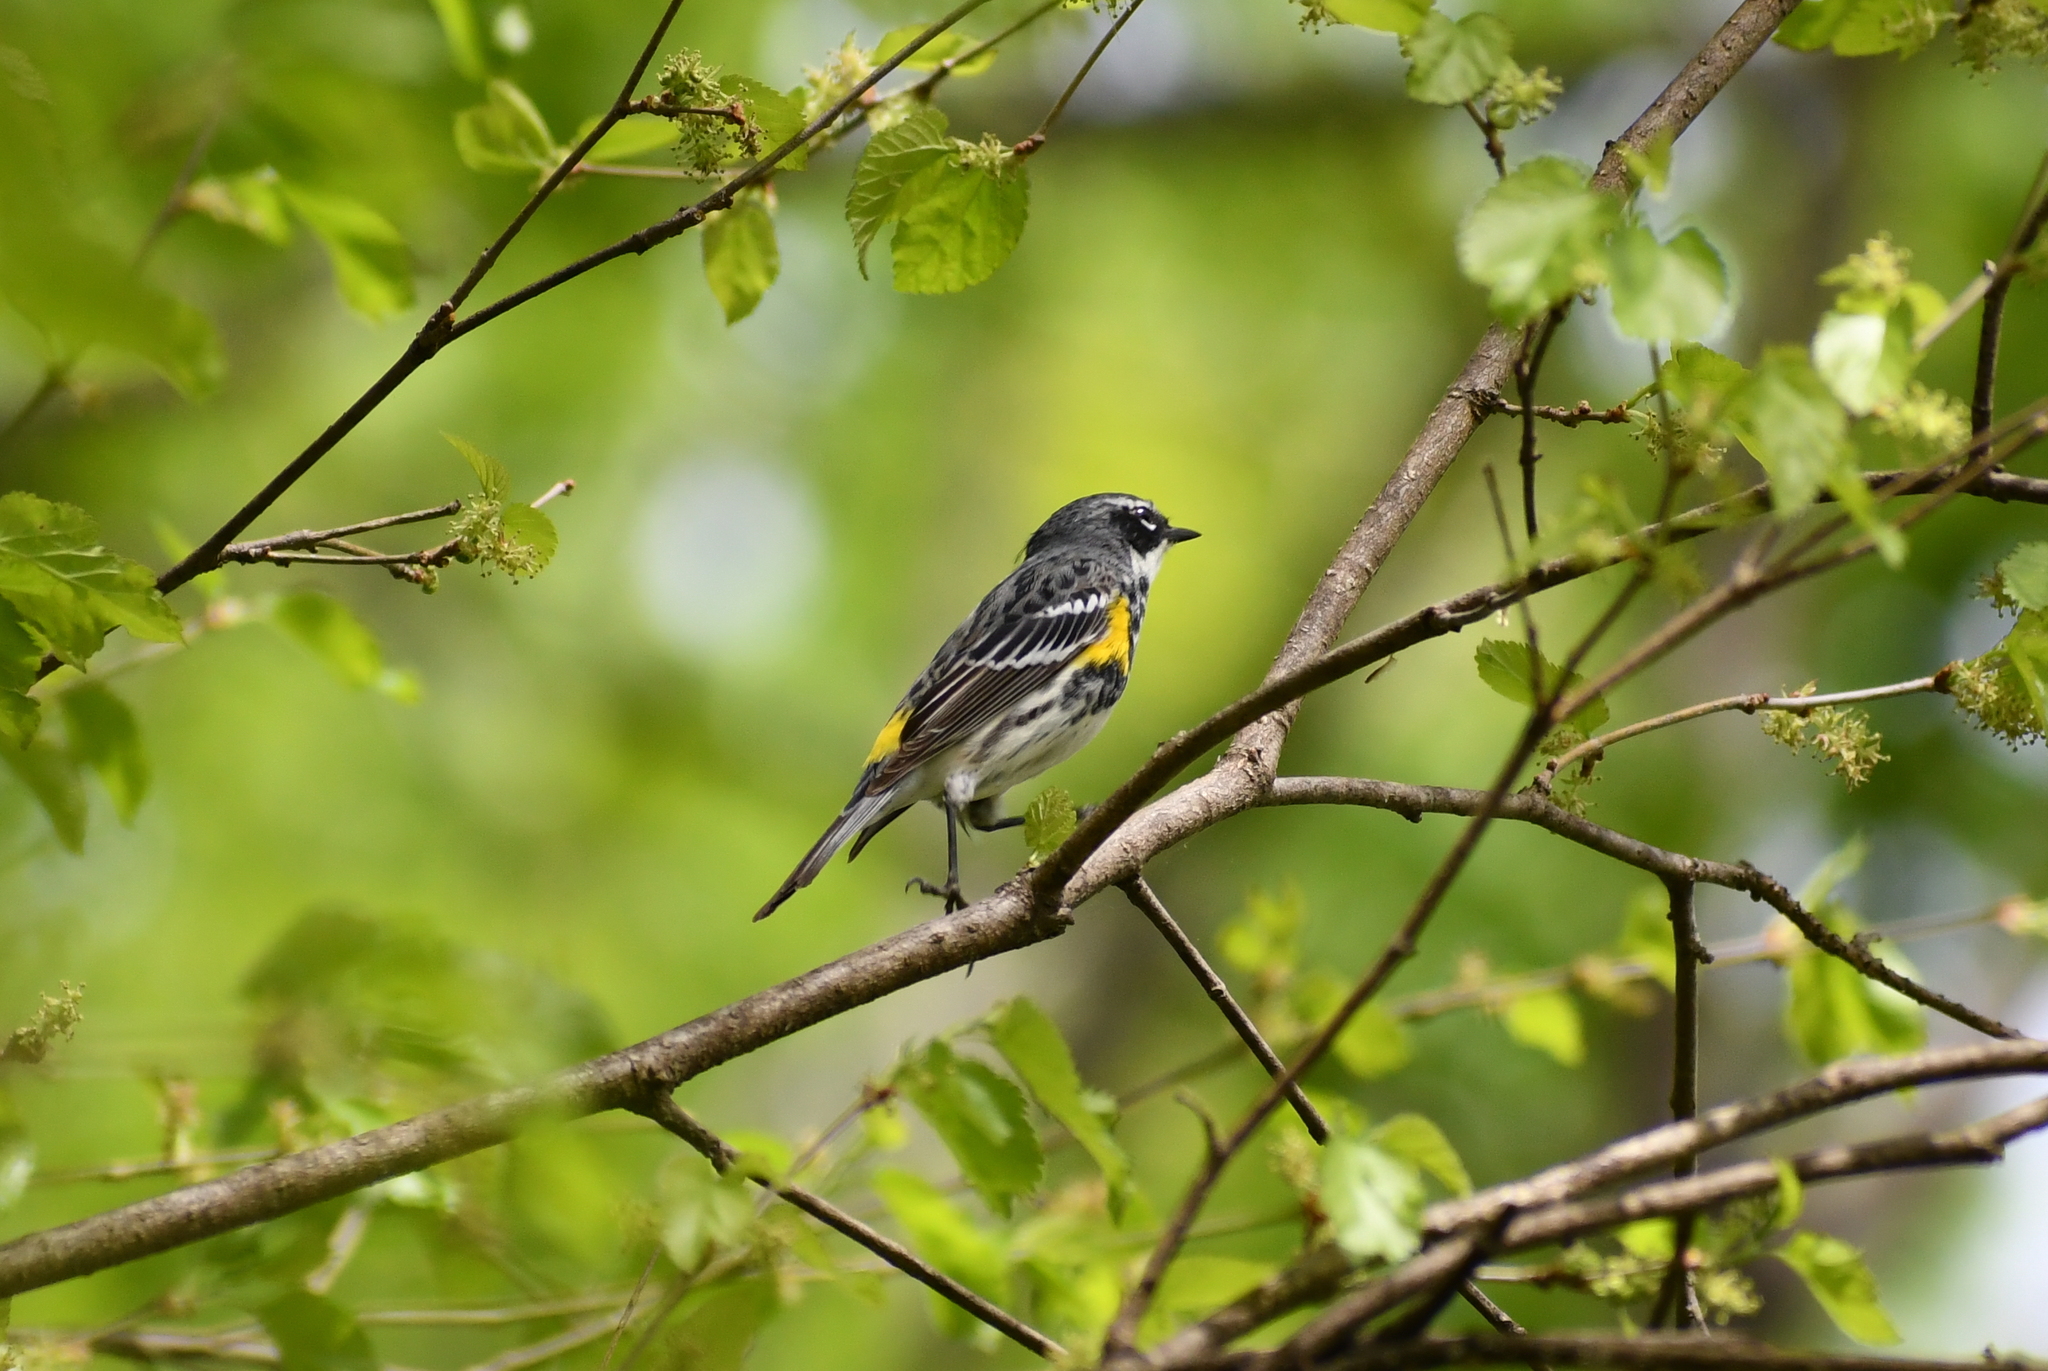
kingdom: Animalia
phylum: Chordata
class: Aves
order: Passeriformes
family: Parulidae
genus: Setophaga
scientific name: Setophaga coronata
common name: Myrtle warbler
